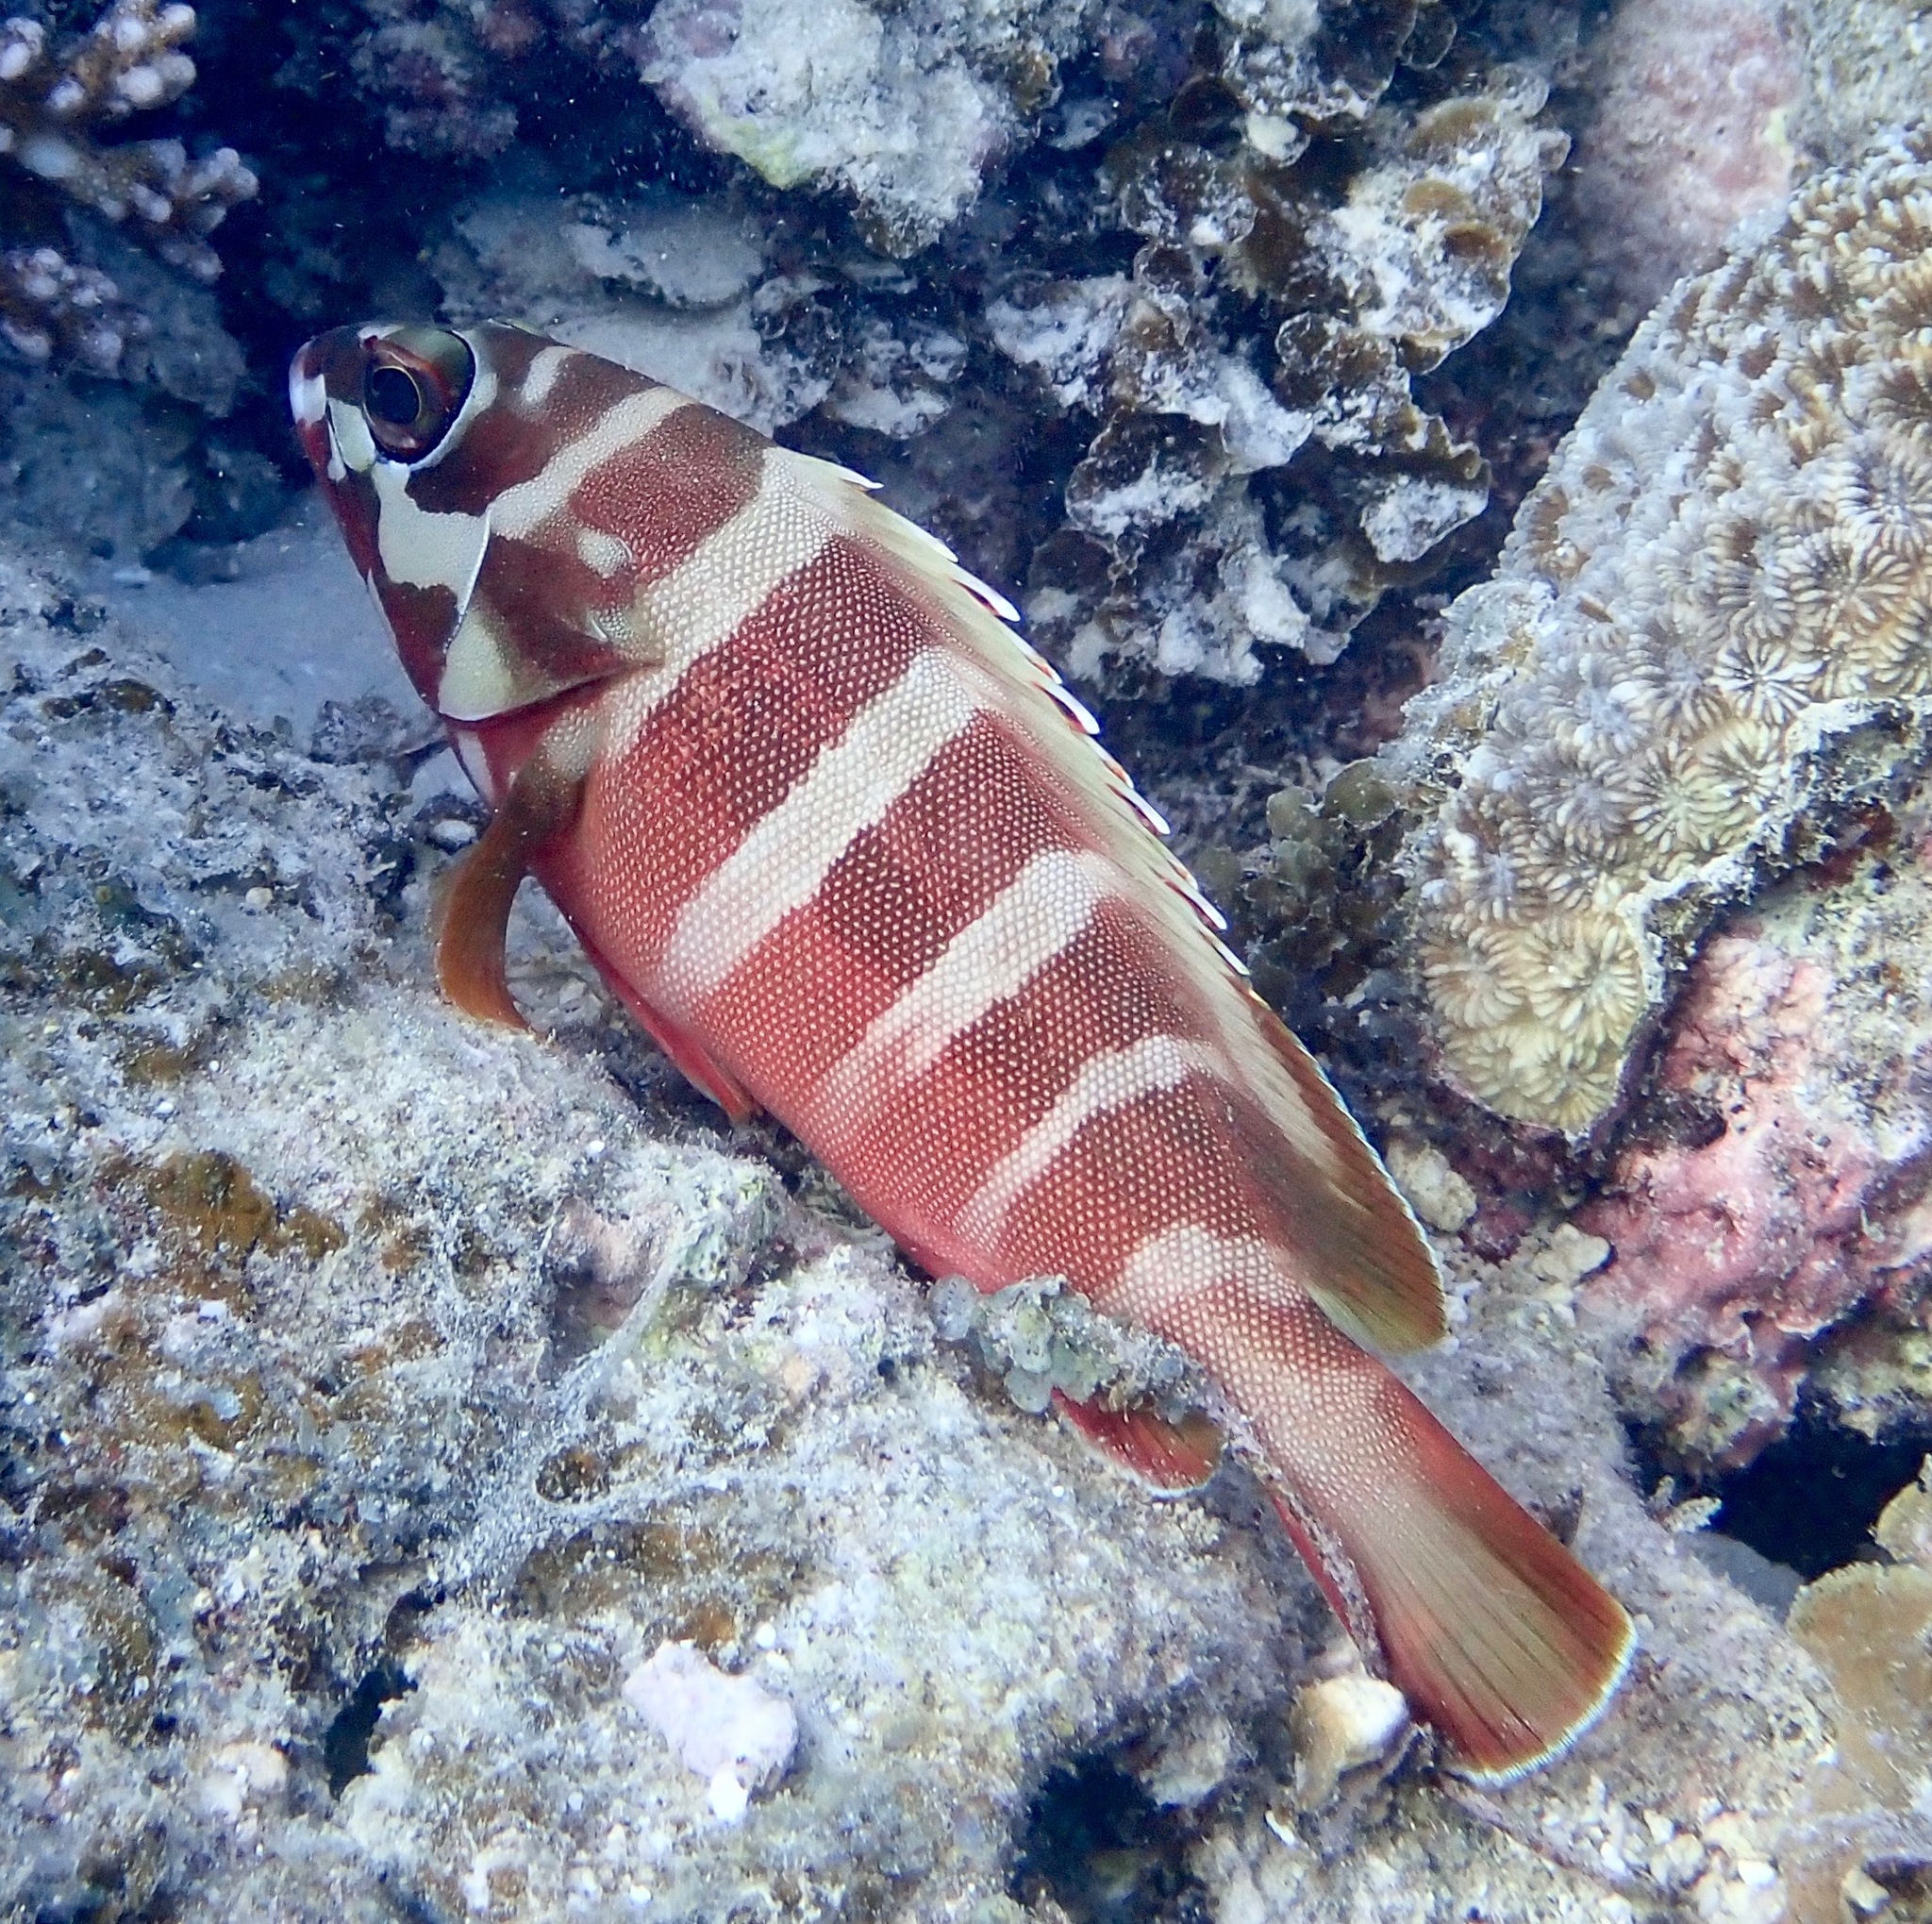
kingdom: Animalia
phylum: Chordata
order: Perciformes
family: Serranidae
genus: Epinephelus
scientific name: Epinephelus fasciatus
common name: Blacktip grouper
